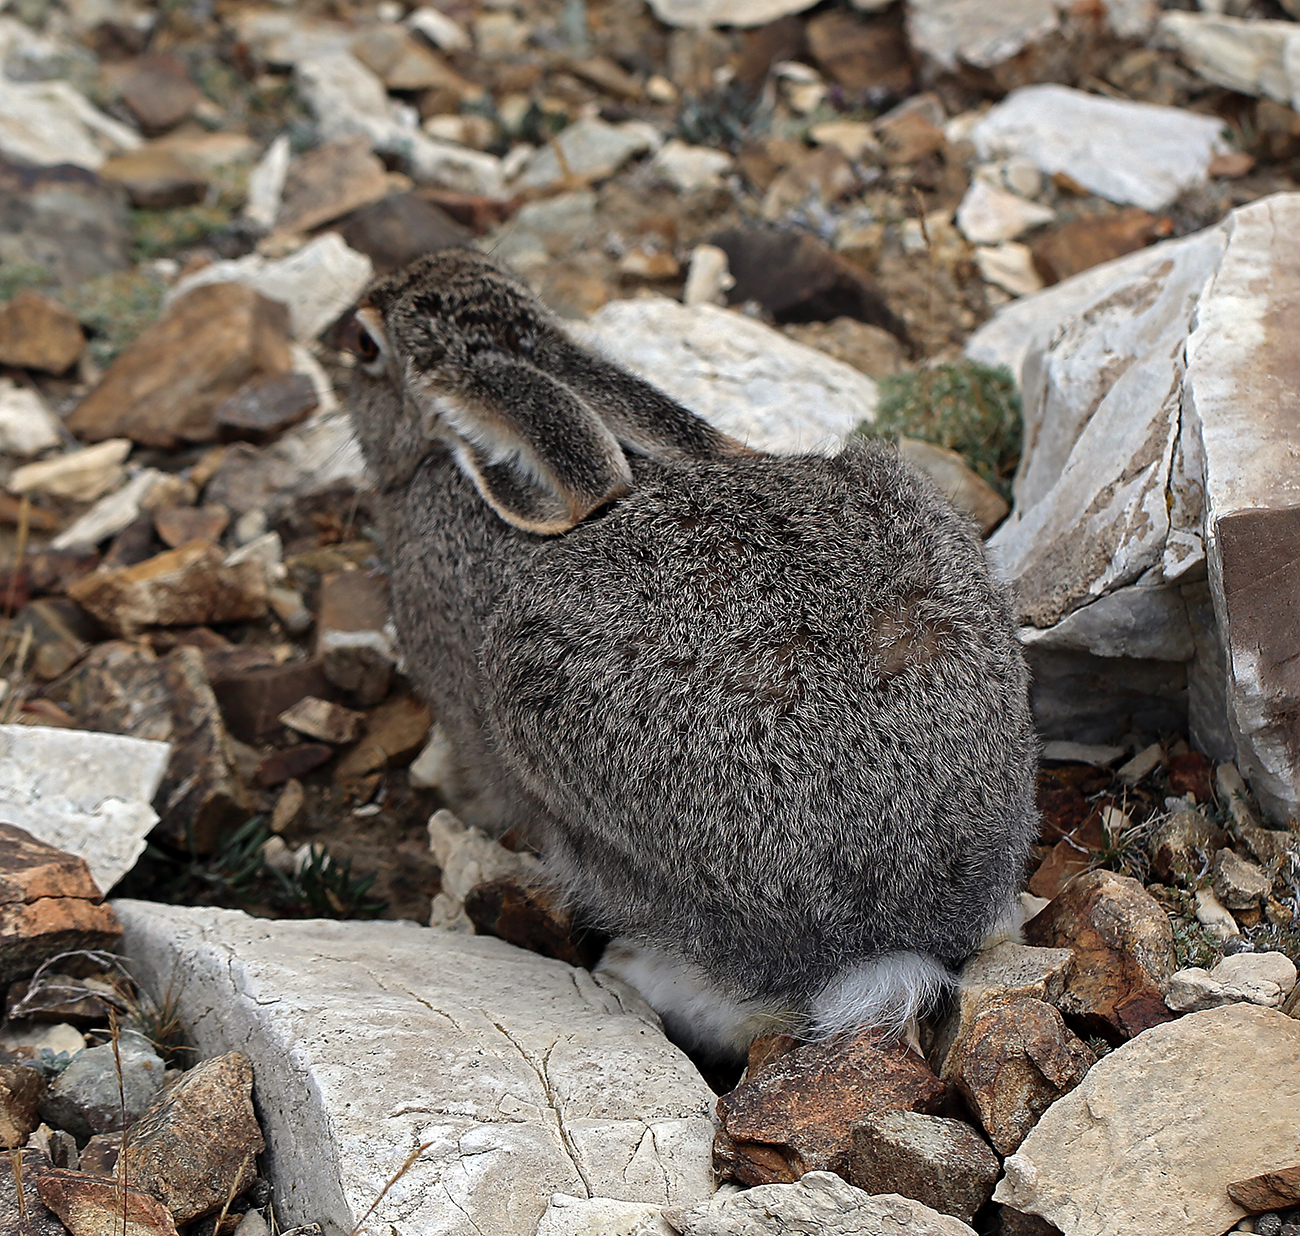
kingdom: Animalia
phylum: Chordata
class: Mammalia
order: Lagomorpha
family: Leporidae
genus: Lepus
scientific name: Lepus townsendii
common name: White-tailed jackrabbit
